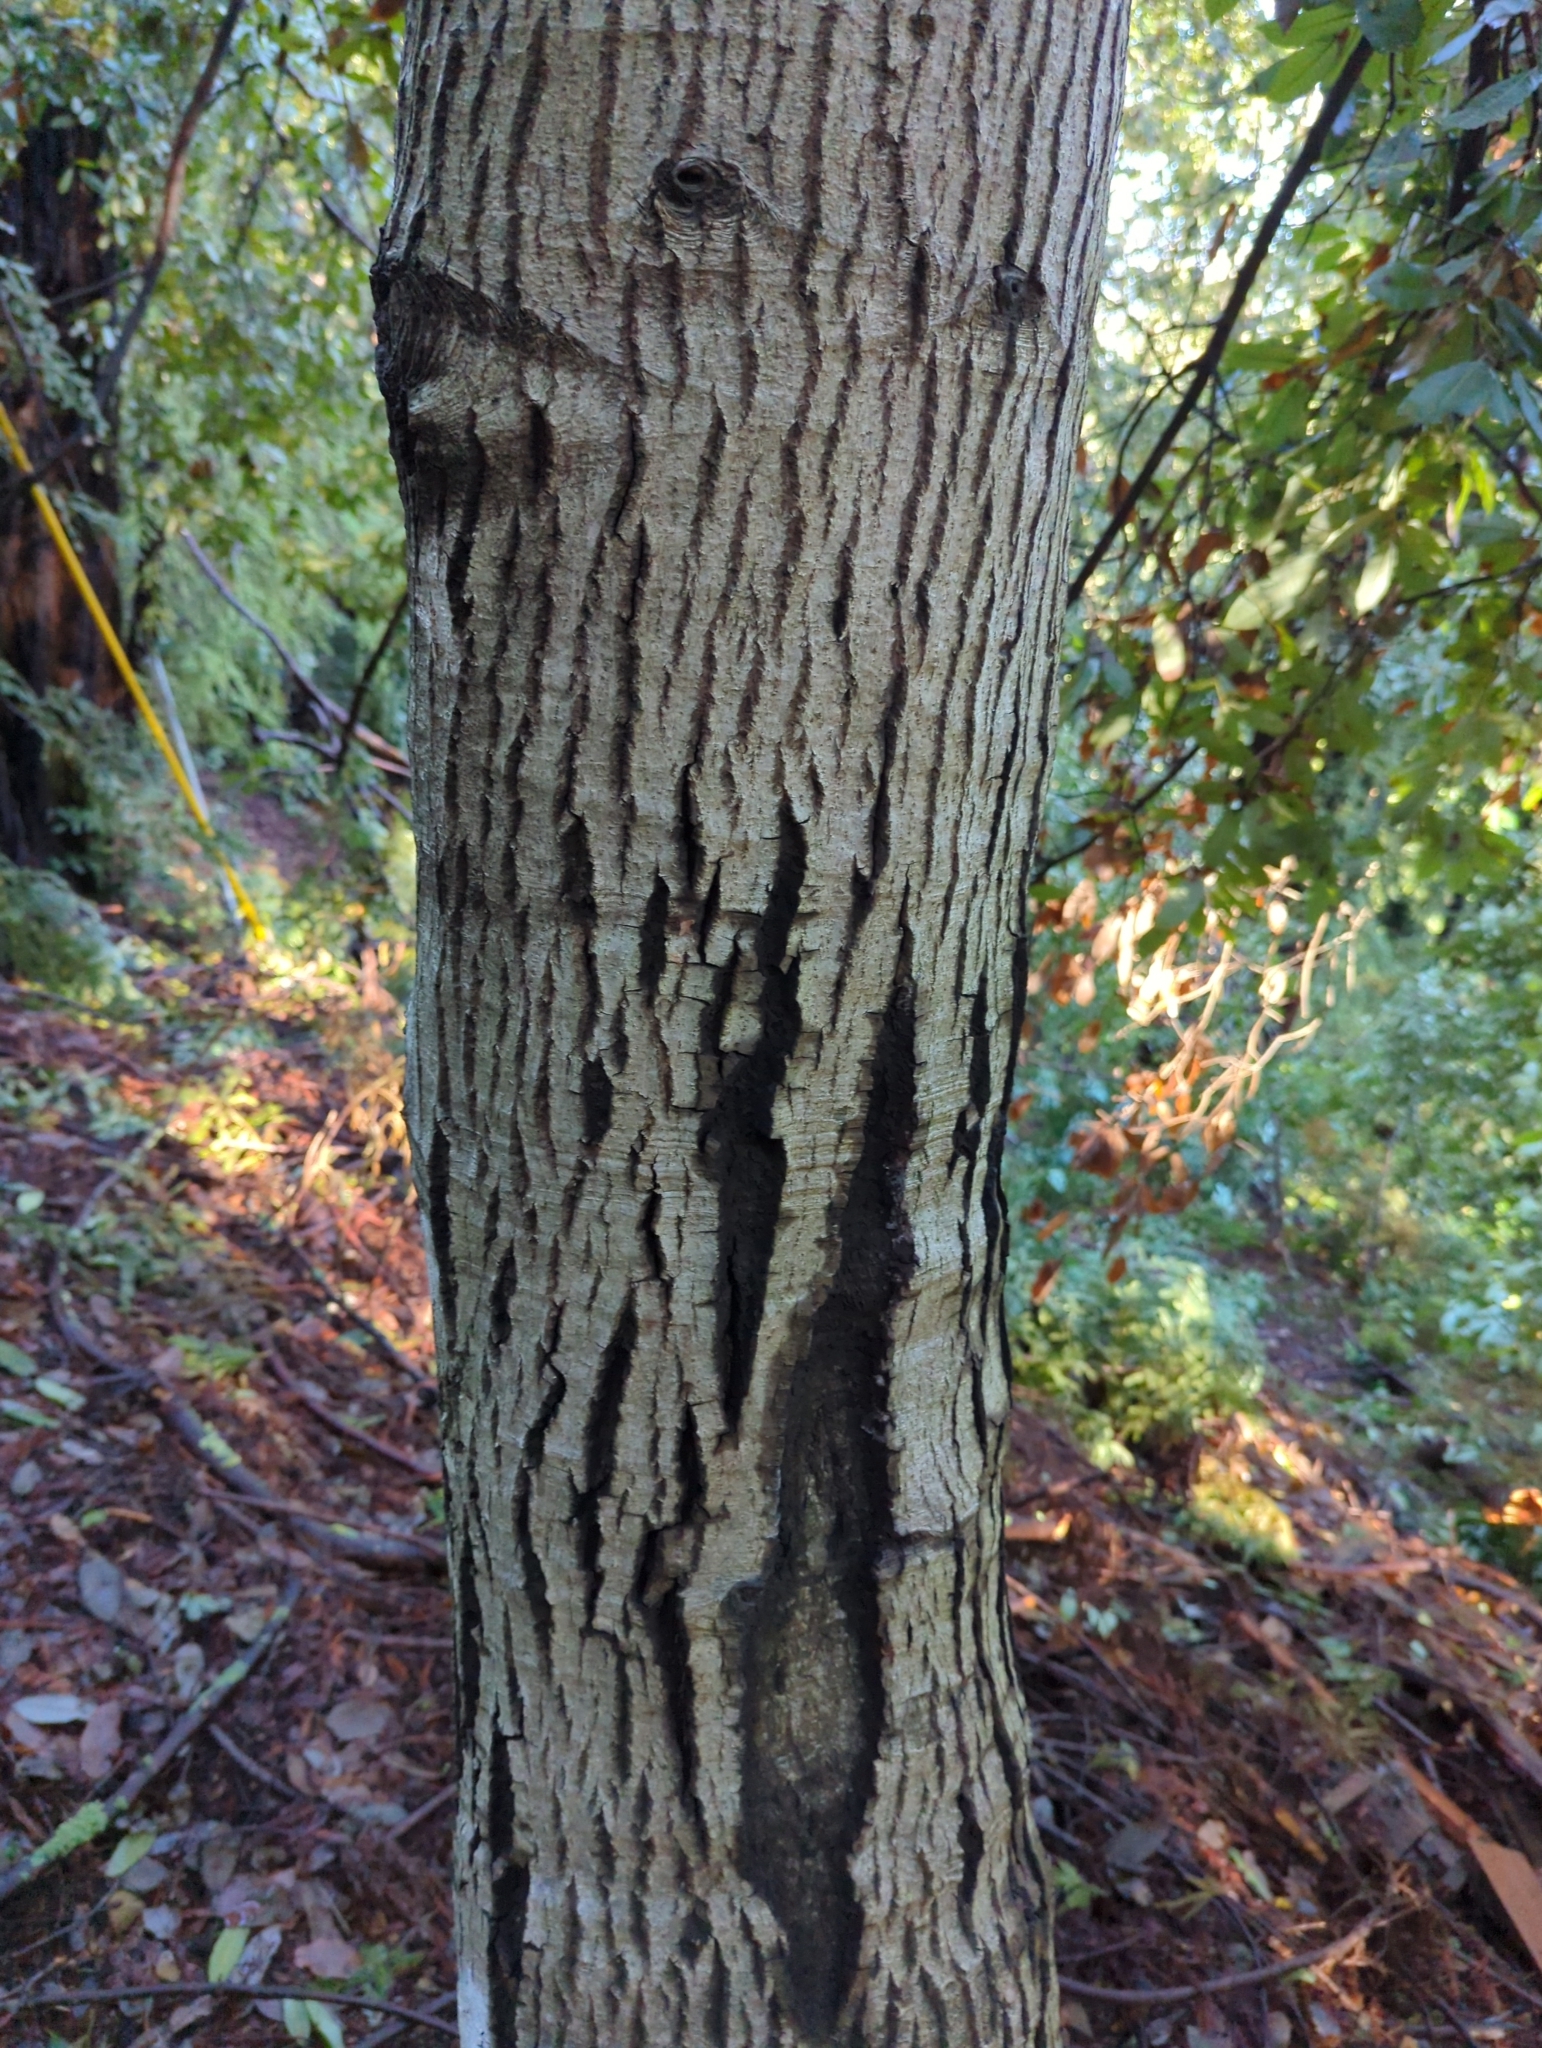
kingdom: Plantae
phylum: Tracheophyta
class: Magnoliopsida
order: Fagales
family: Fagaceae
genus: Notholithocarpus
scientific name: Notholithocarpus densiflorus
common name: Tan bark oak
